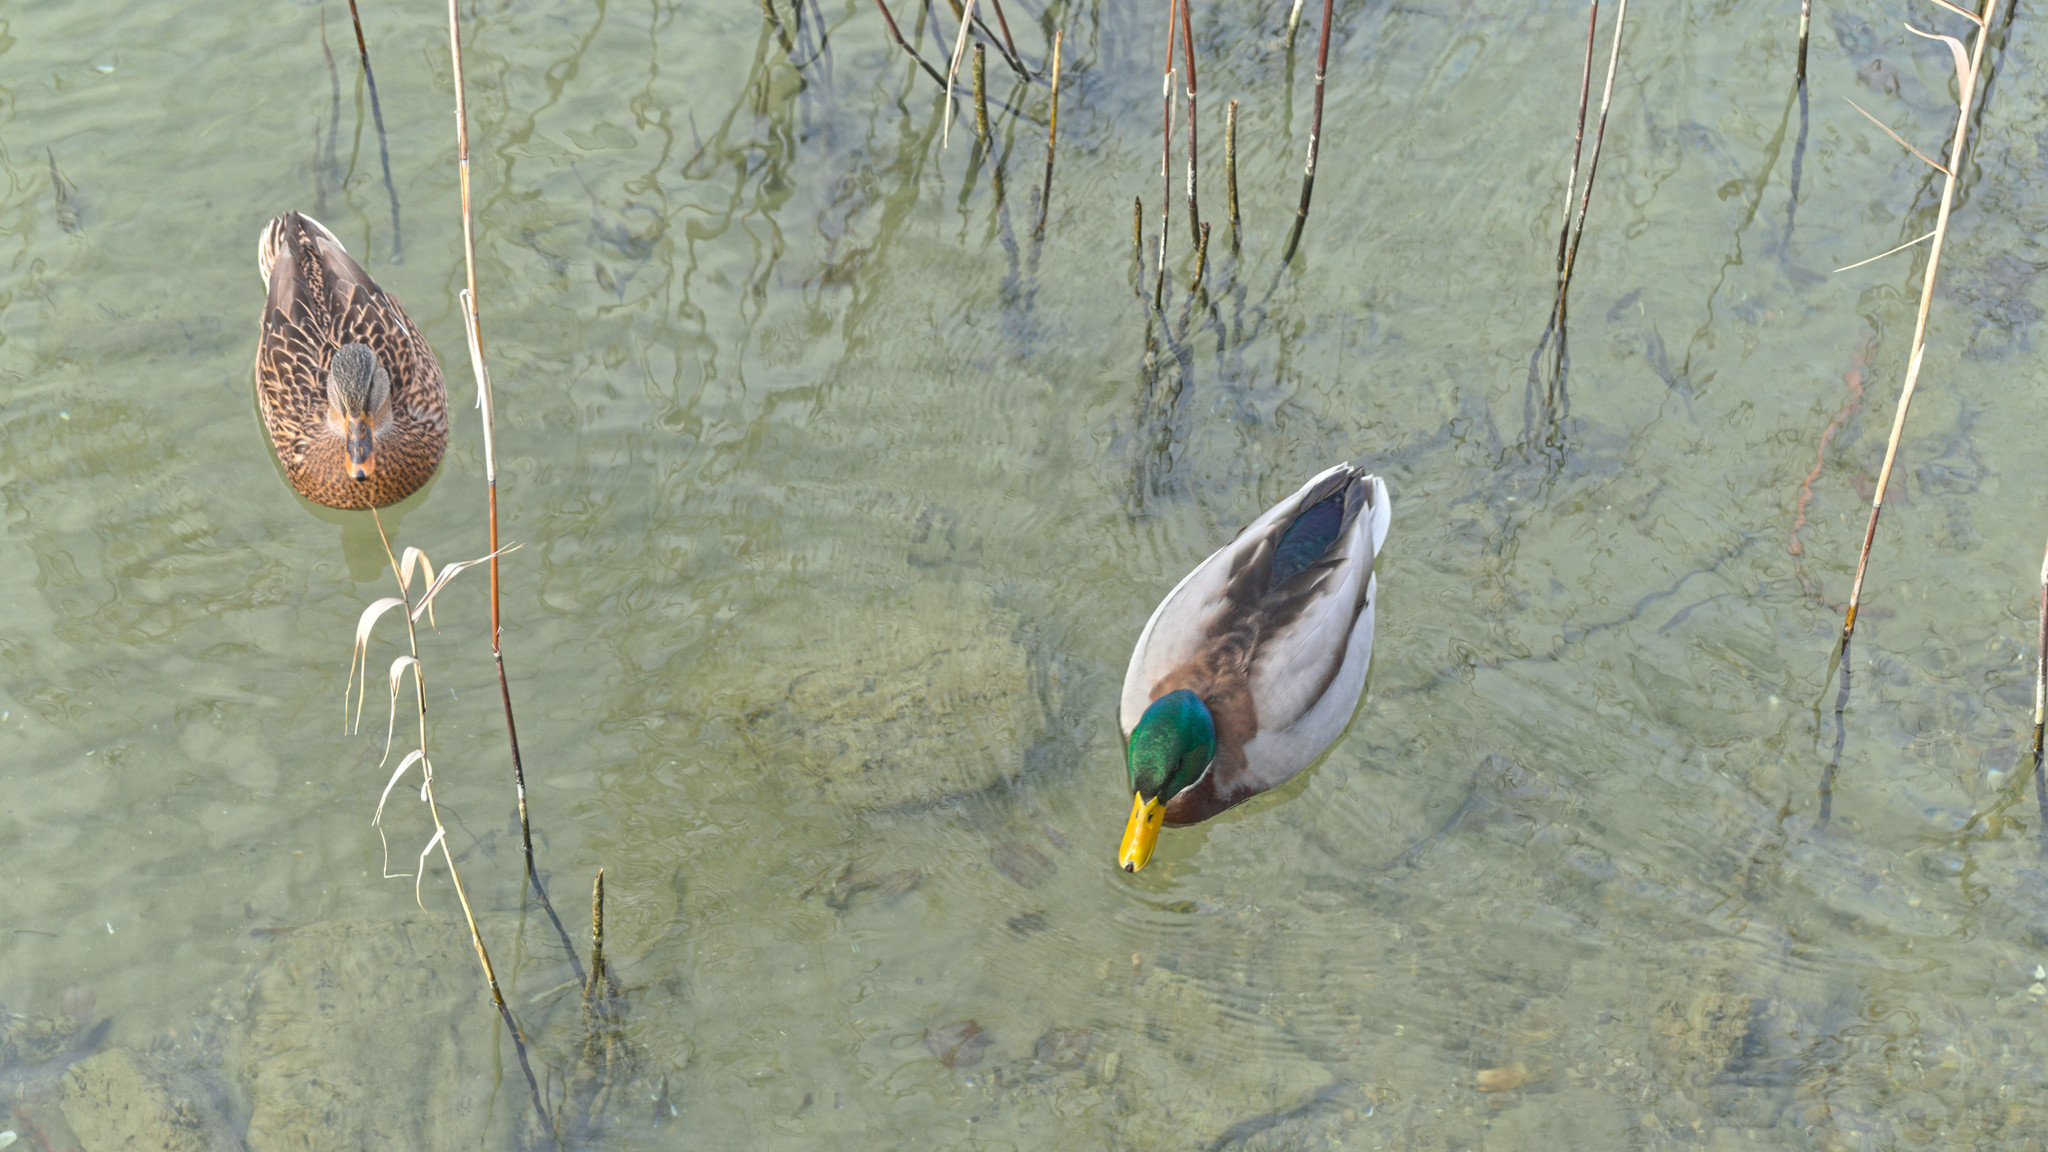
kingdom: Animalia
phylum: Chordata
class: Aves
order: Anseriformes
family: Anatidae
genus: Anas
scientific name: Anas platyrhynchos
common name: Mallard
